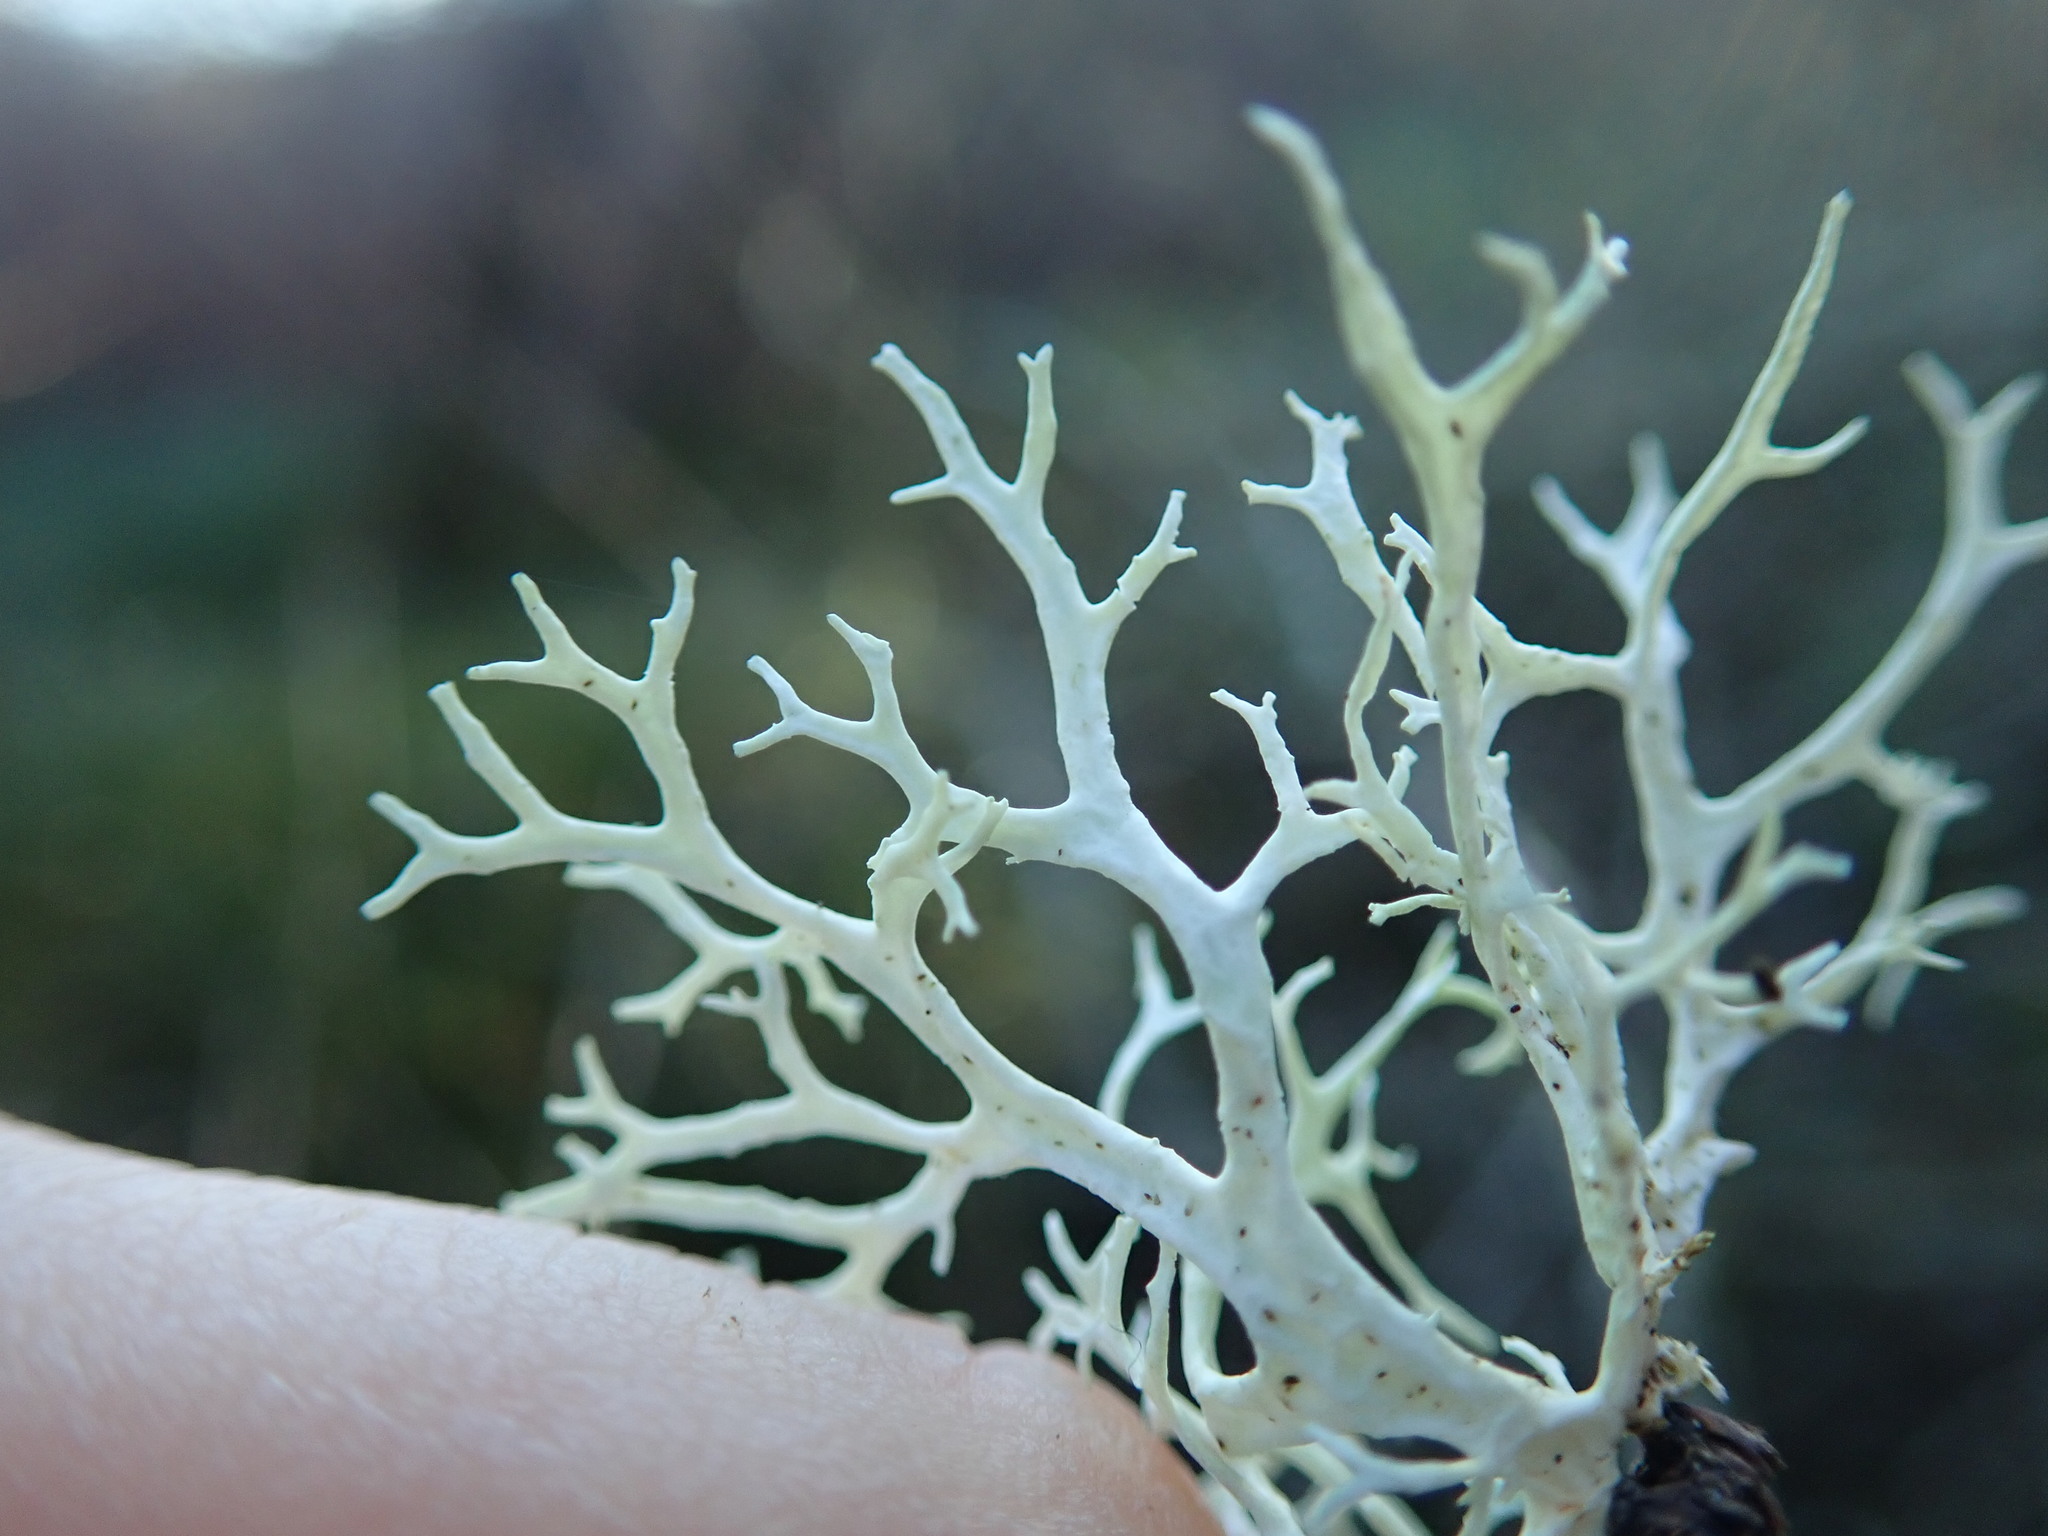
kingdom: Fungi
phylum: Ascomycota
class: Lecanoromycetes
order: Lecanorales
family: Parmeliaceae
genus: Evernia
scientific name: Evernia prunastri
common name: Oak moss
